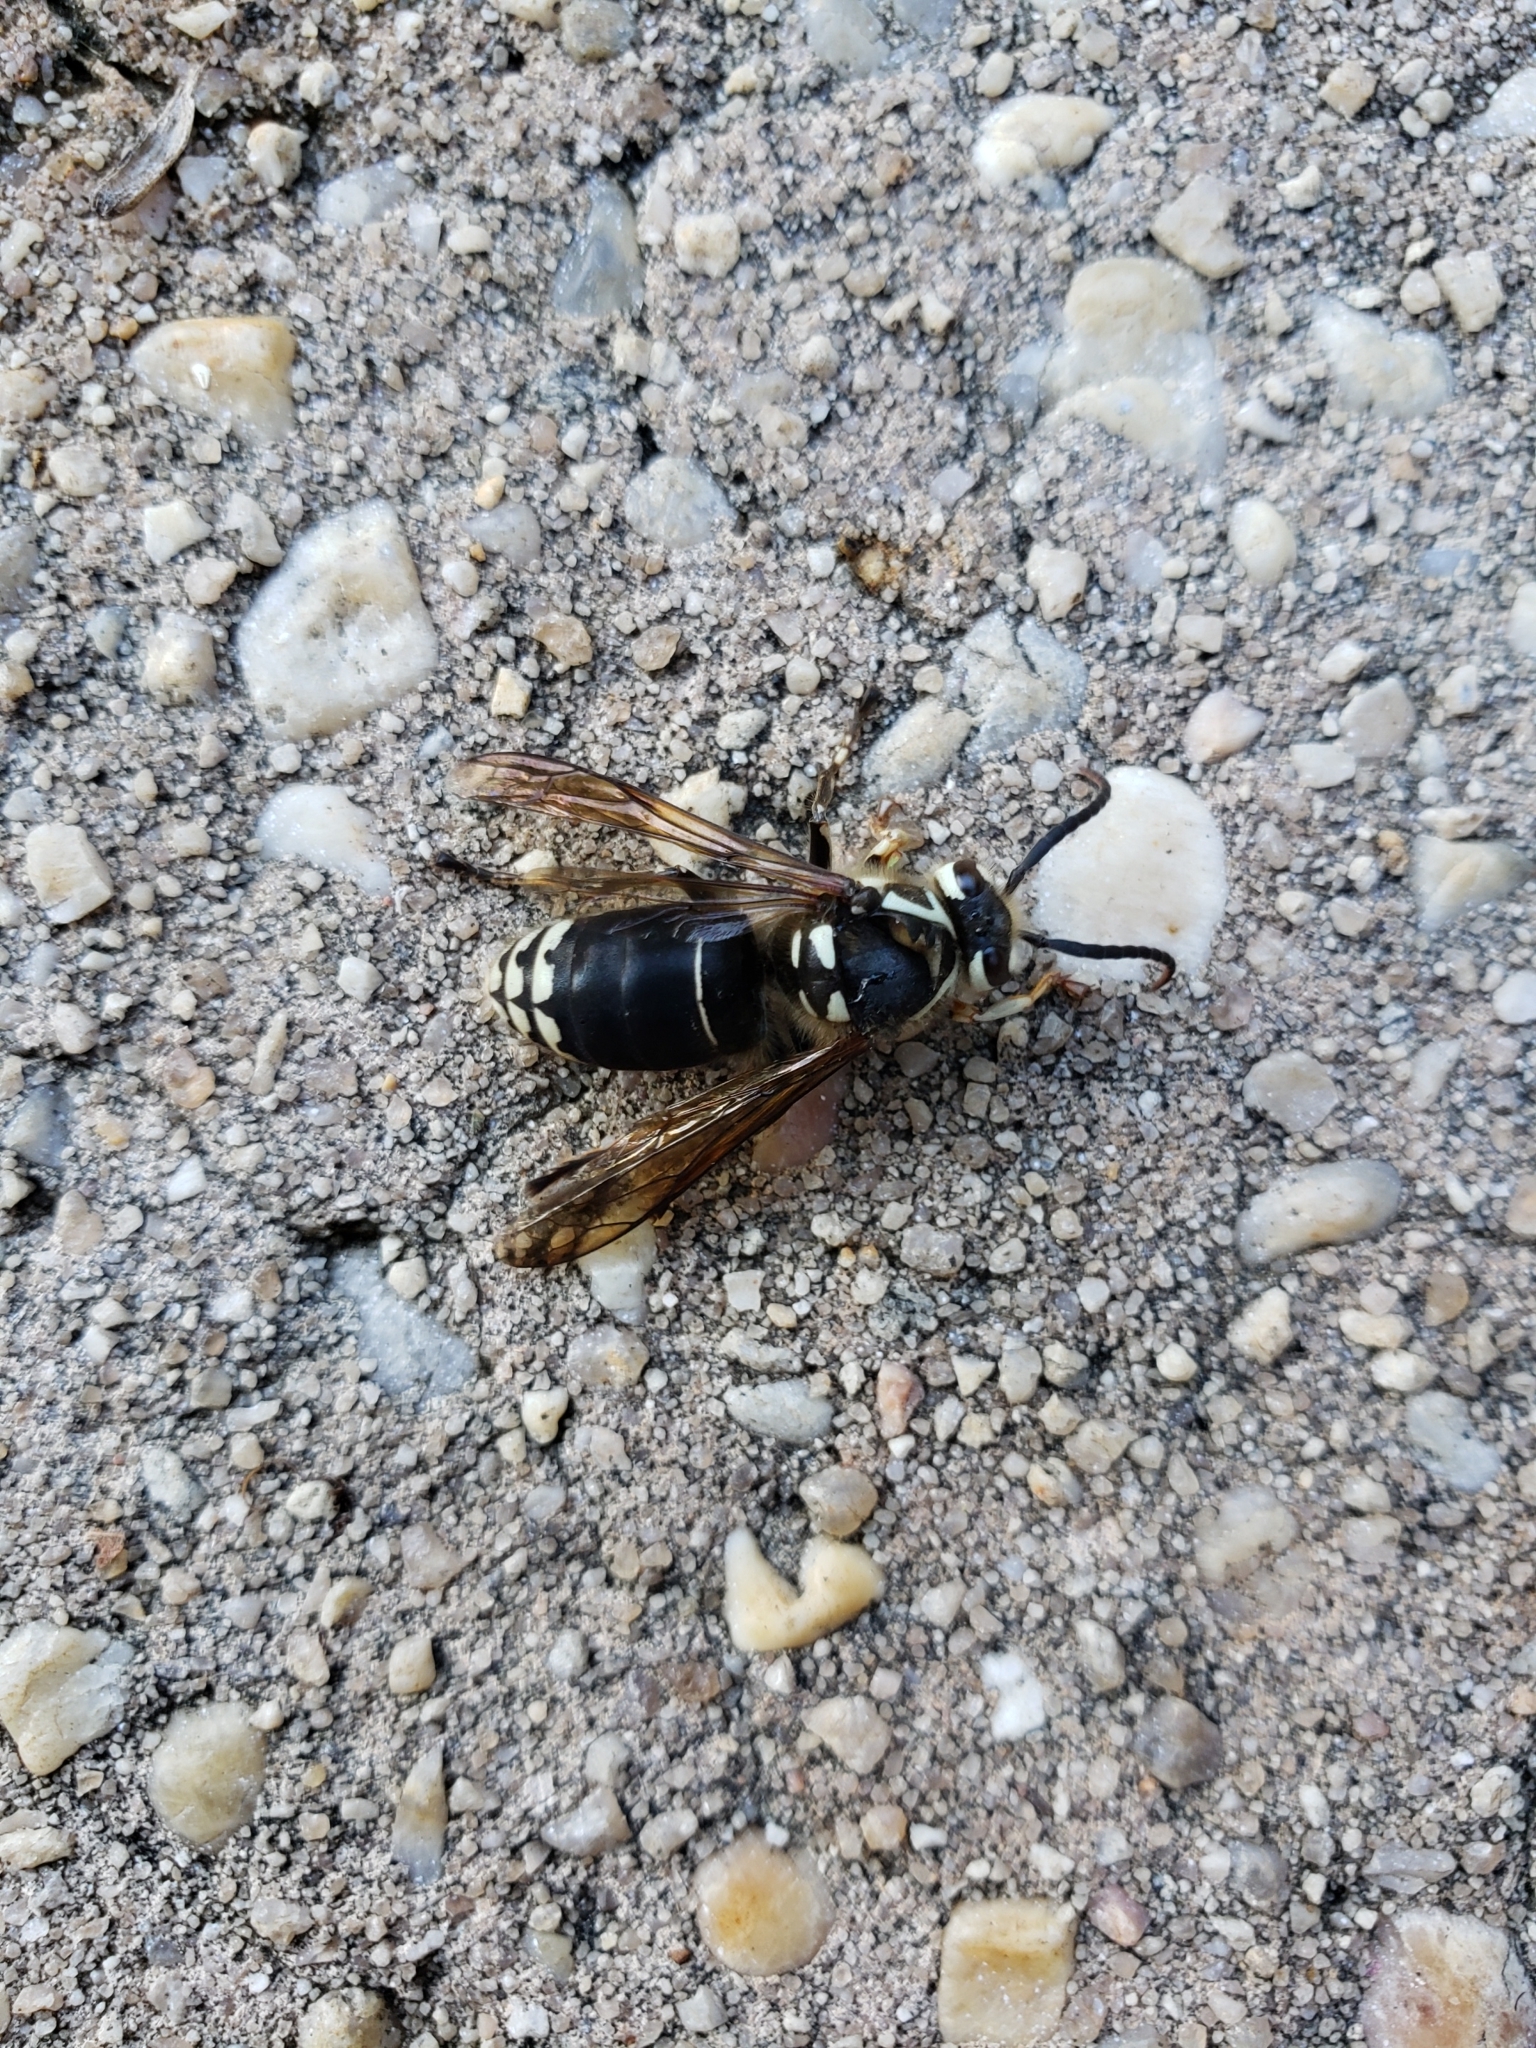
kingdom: Animalia
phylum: Arthropoda
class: Insecta
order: Hymenoptera
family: Vespidae
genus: Dolichovespula
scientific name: Dolichovespula maculata
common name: Bald-faced hornet
